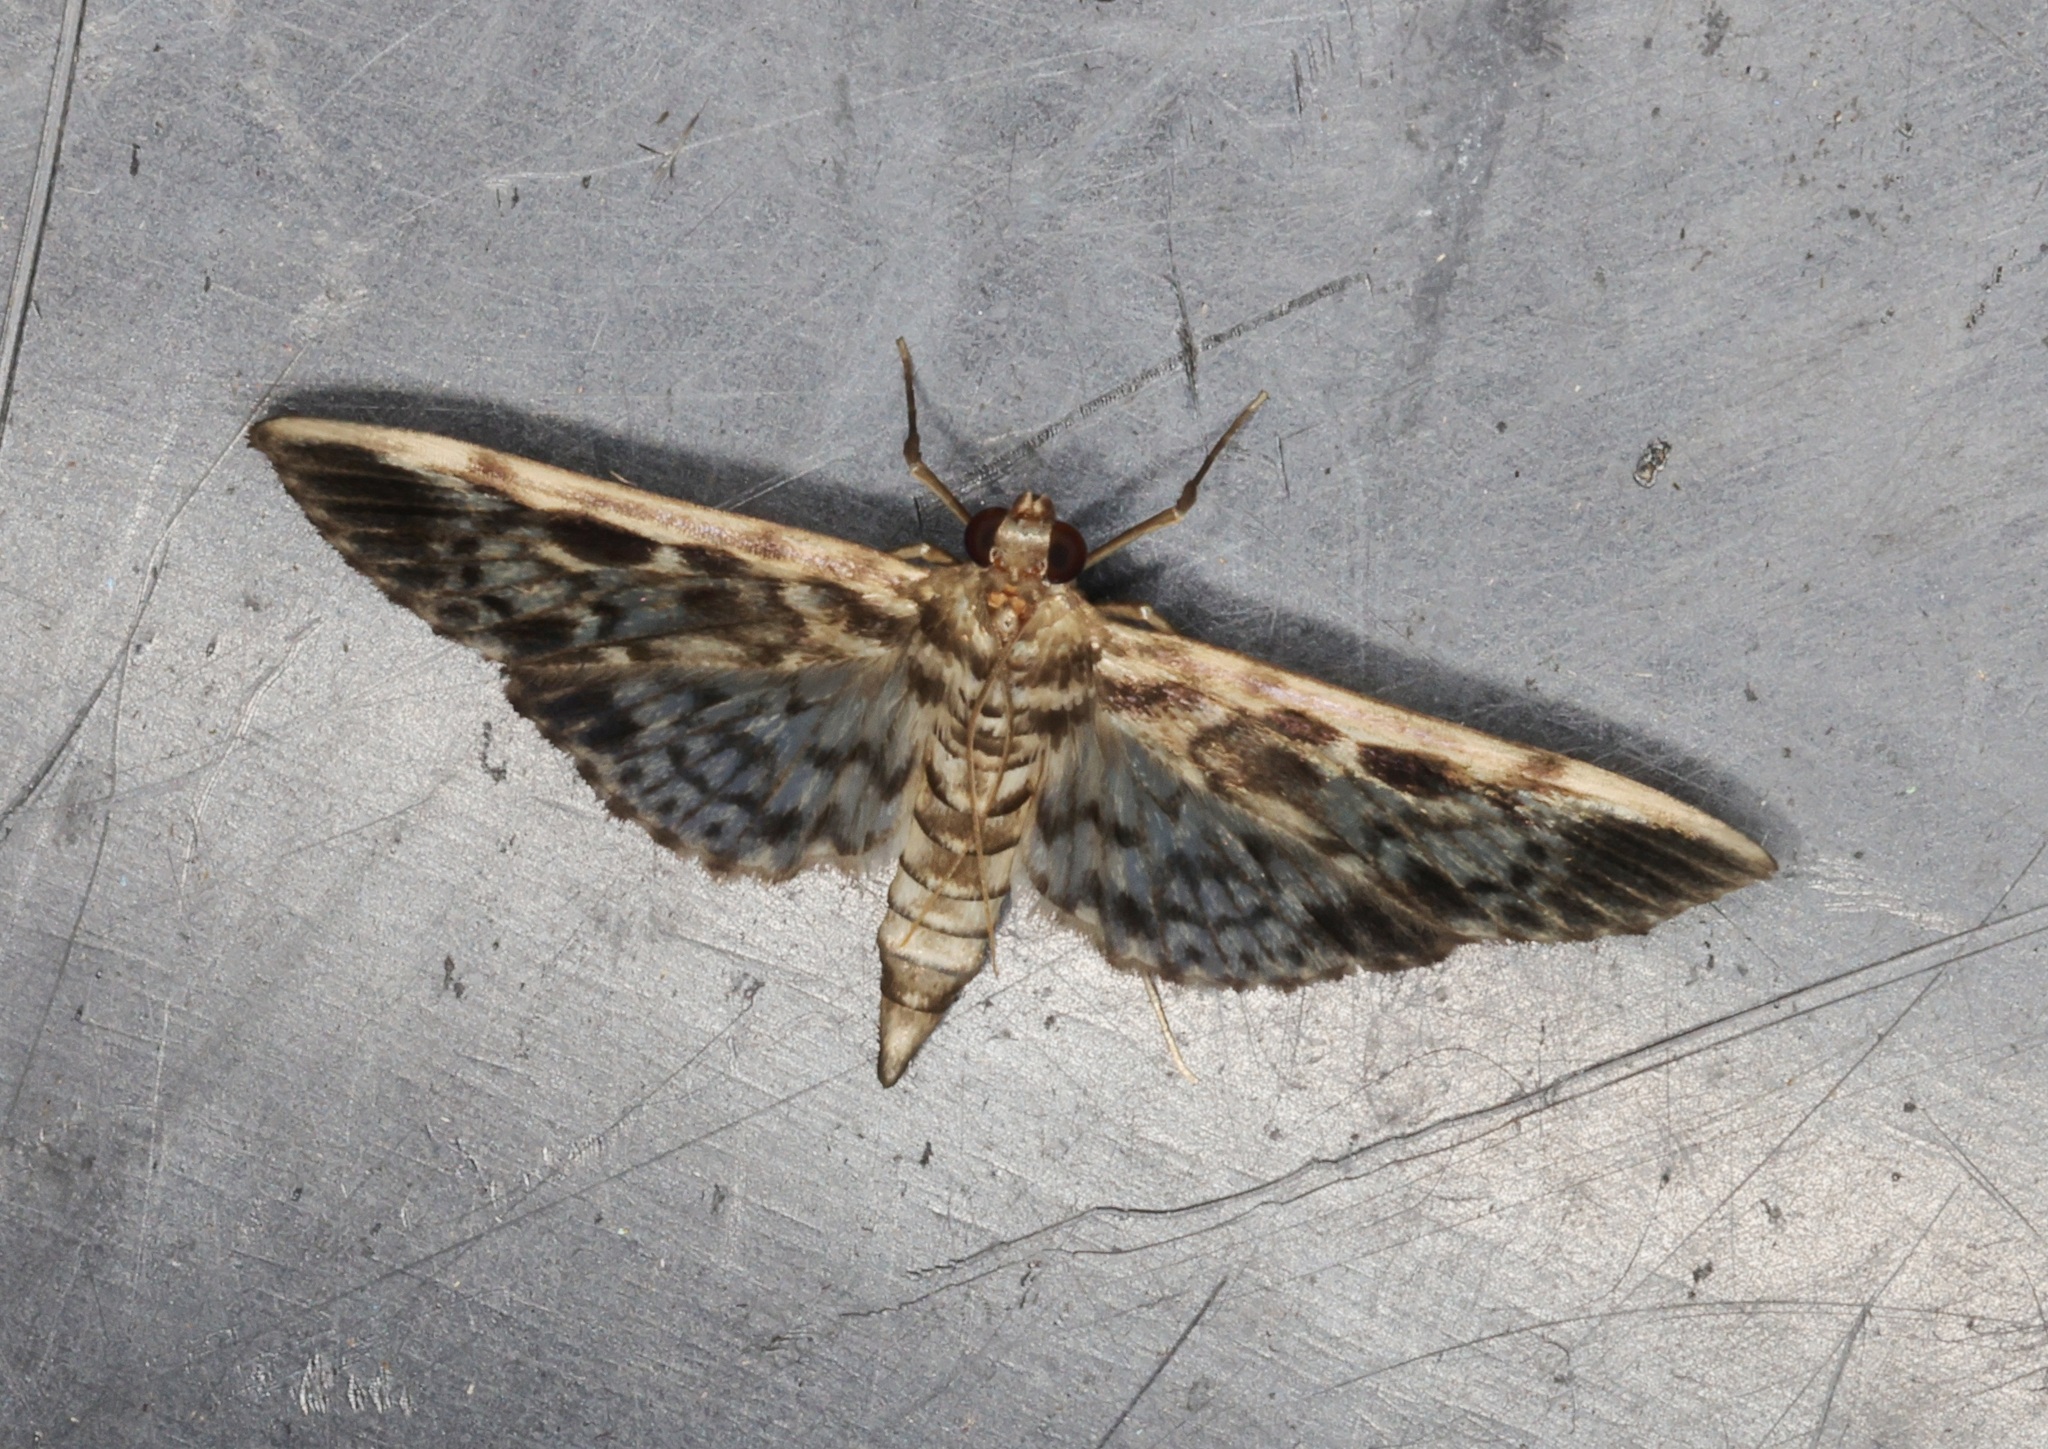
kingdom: Animalia
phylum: Arthropoda
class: Insecta
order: Lepidoptera
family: Crambidae
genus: Rhimphaliodes
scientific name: Rhimphaliodes macrostigma
